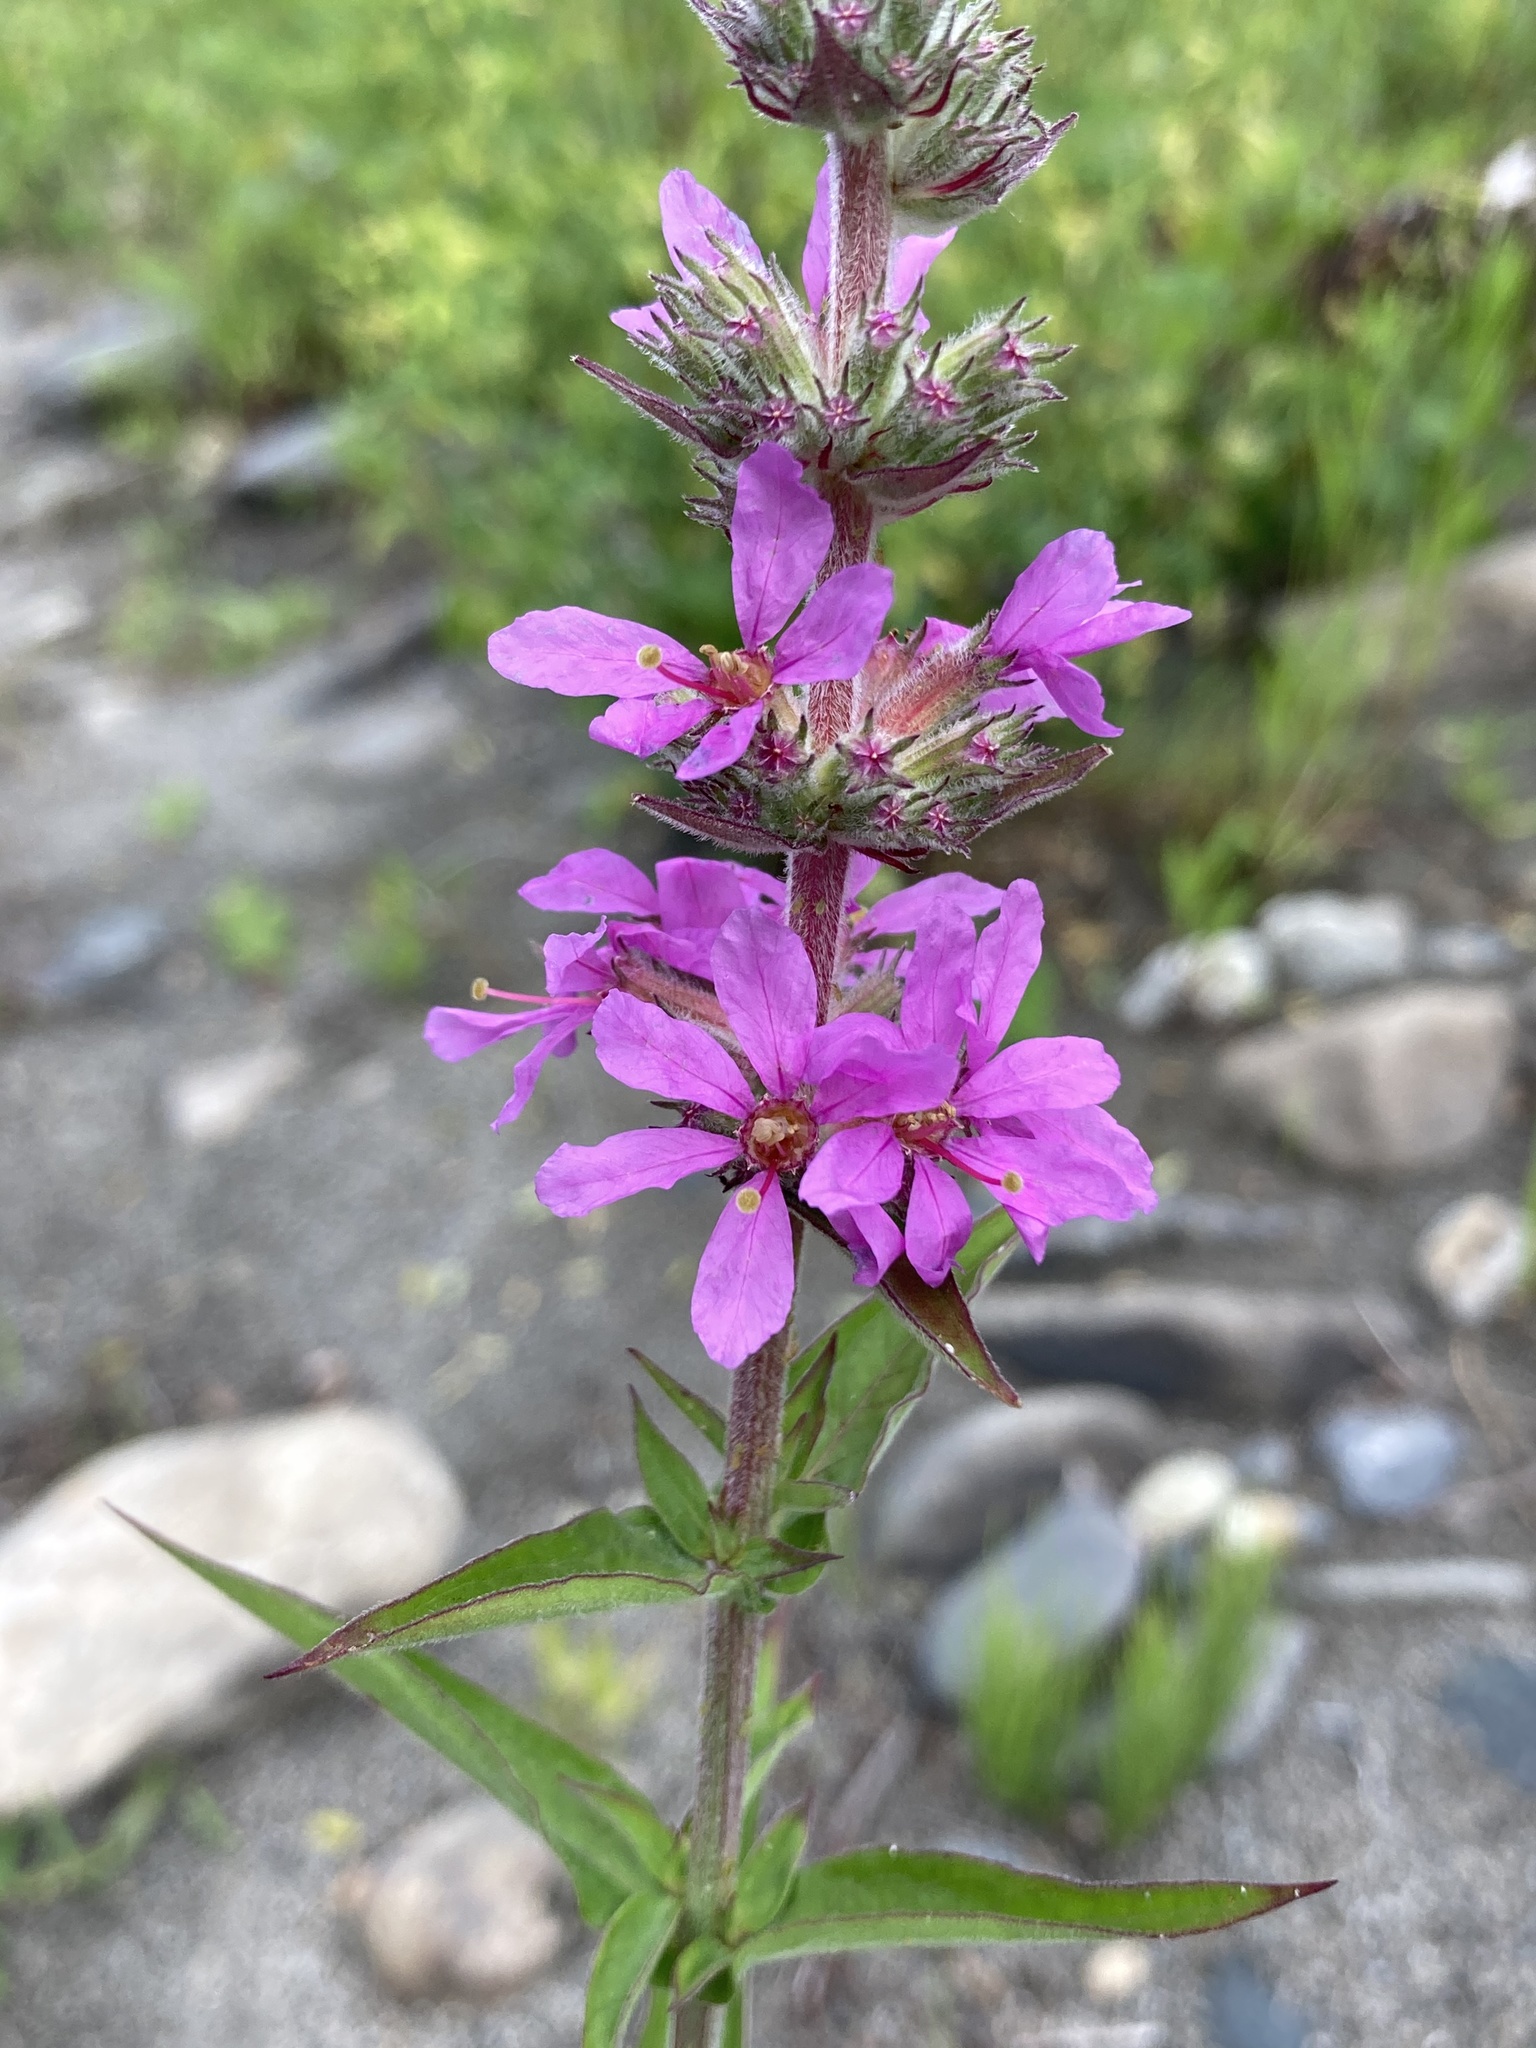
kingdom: Plantae
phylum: Tracheophyta
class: Magnoliopsida
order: Myrtales
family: Lythraceae
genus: Lythrum
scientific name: Lythrum salicaria
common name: Purple loosestrife
